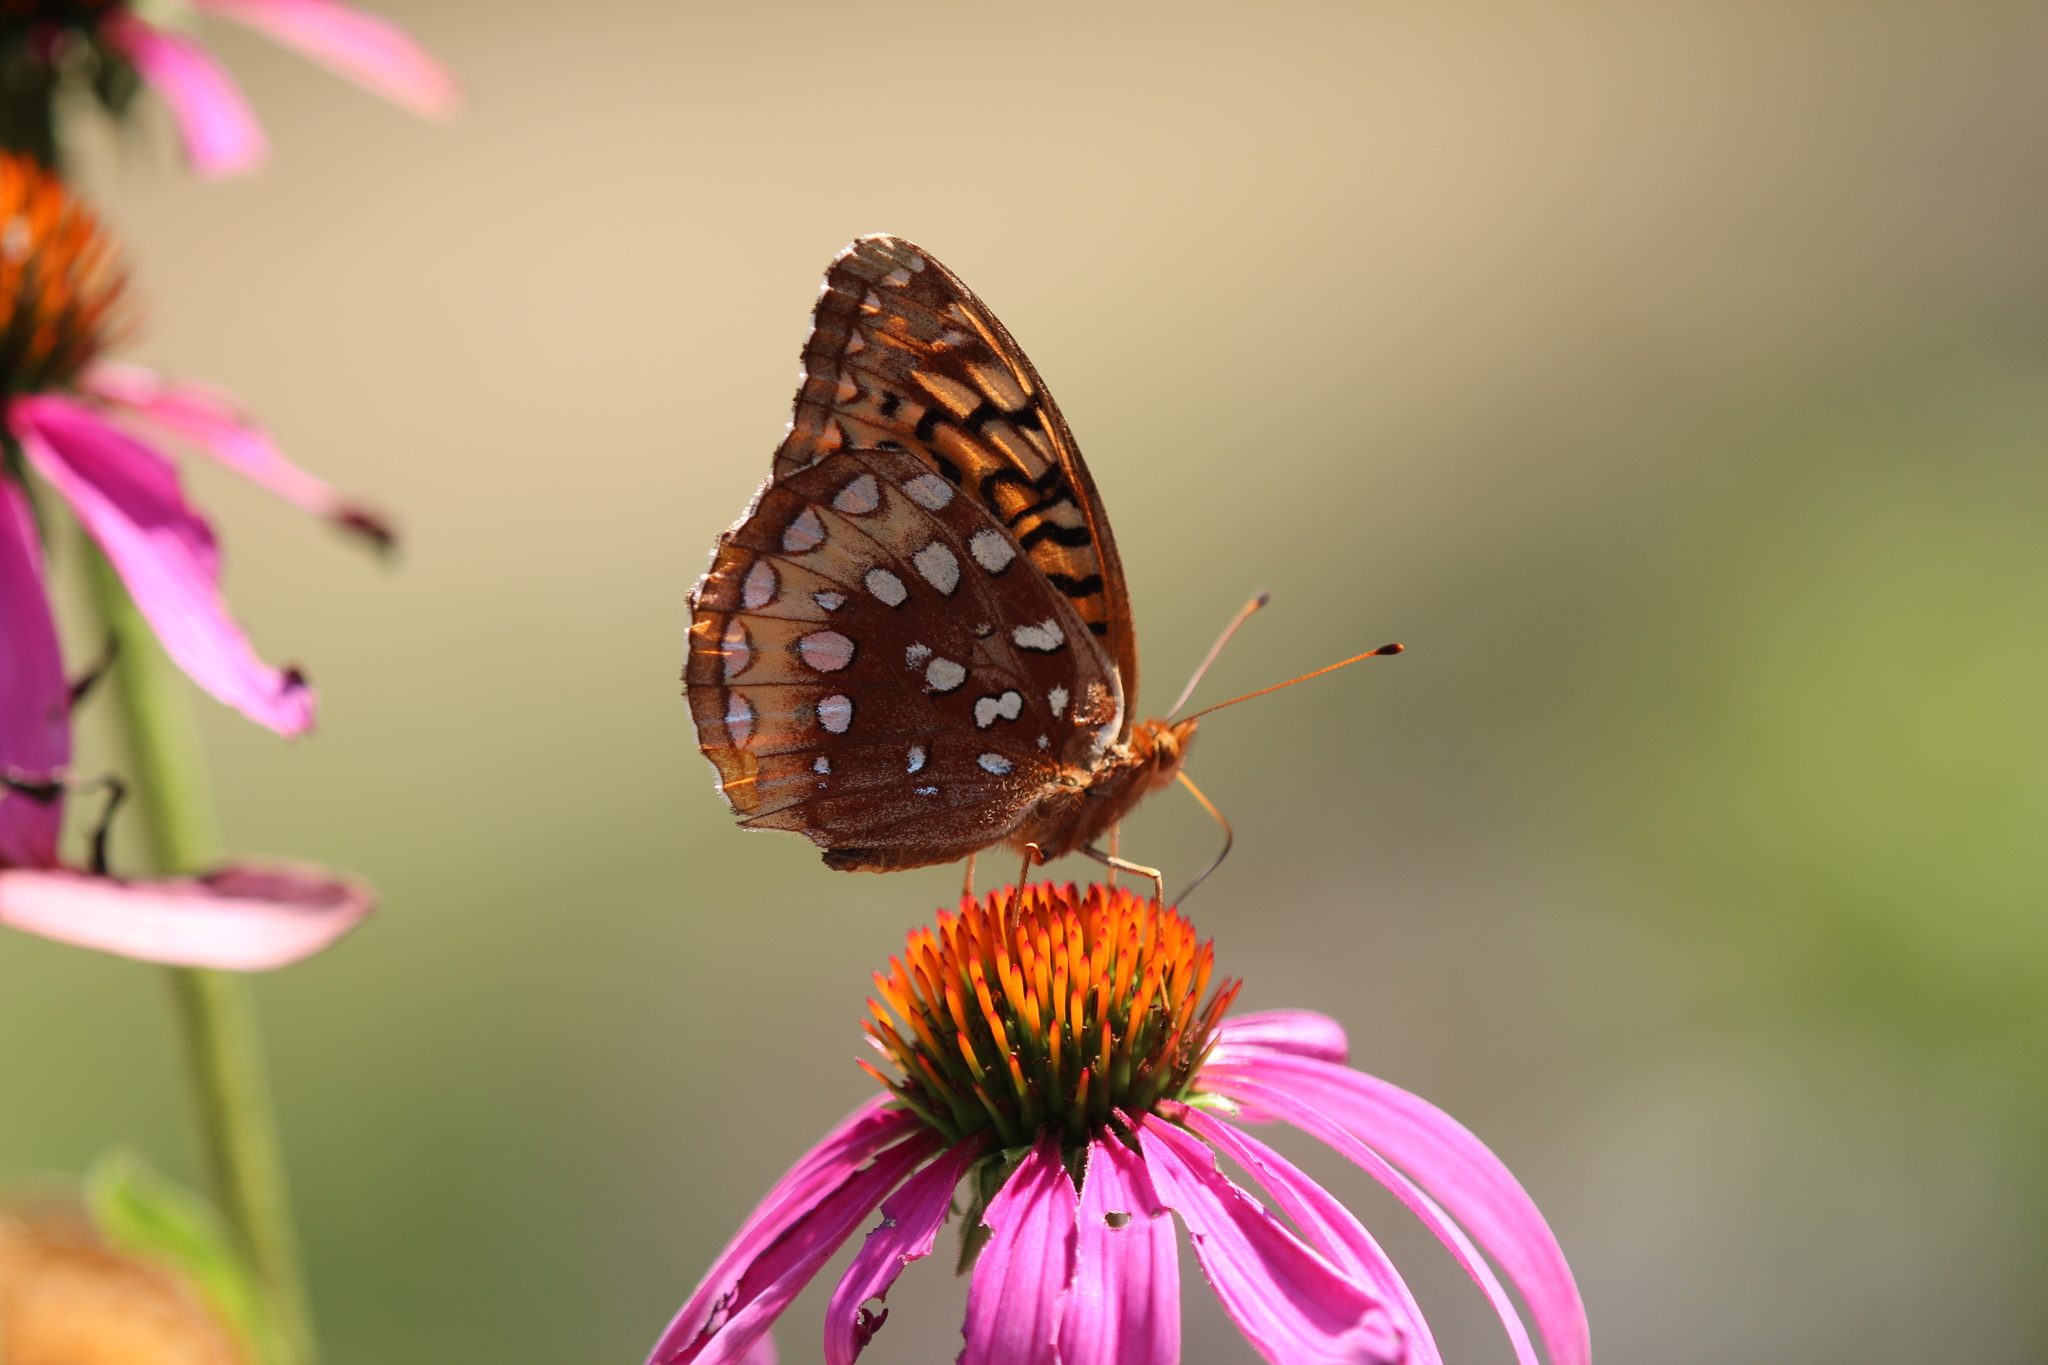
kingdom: Animalia
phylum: Arthropoda
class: Insecta
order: Lepidoptera
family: Nymphalidae
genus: Speyeria
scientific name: Speyeria cybele
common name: Great spangled fritillary
